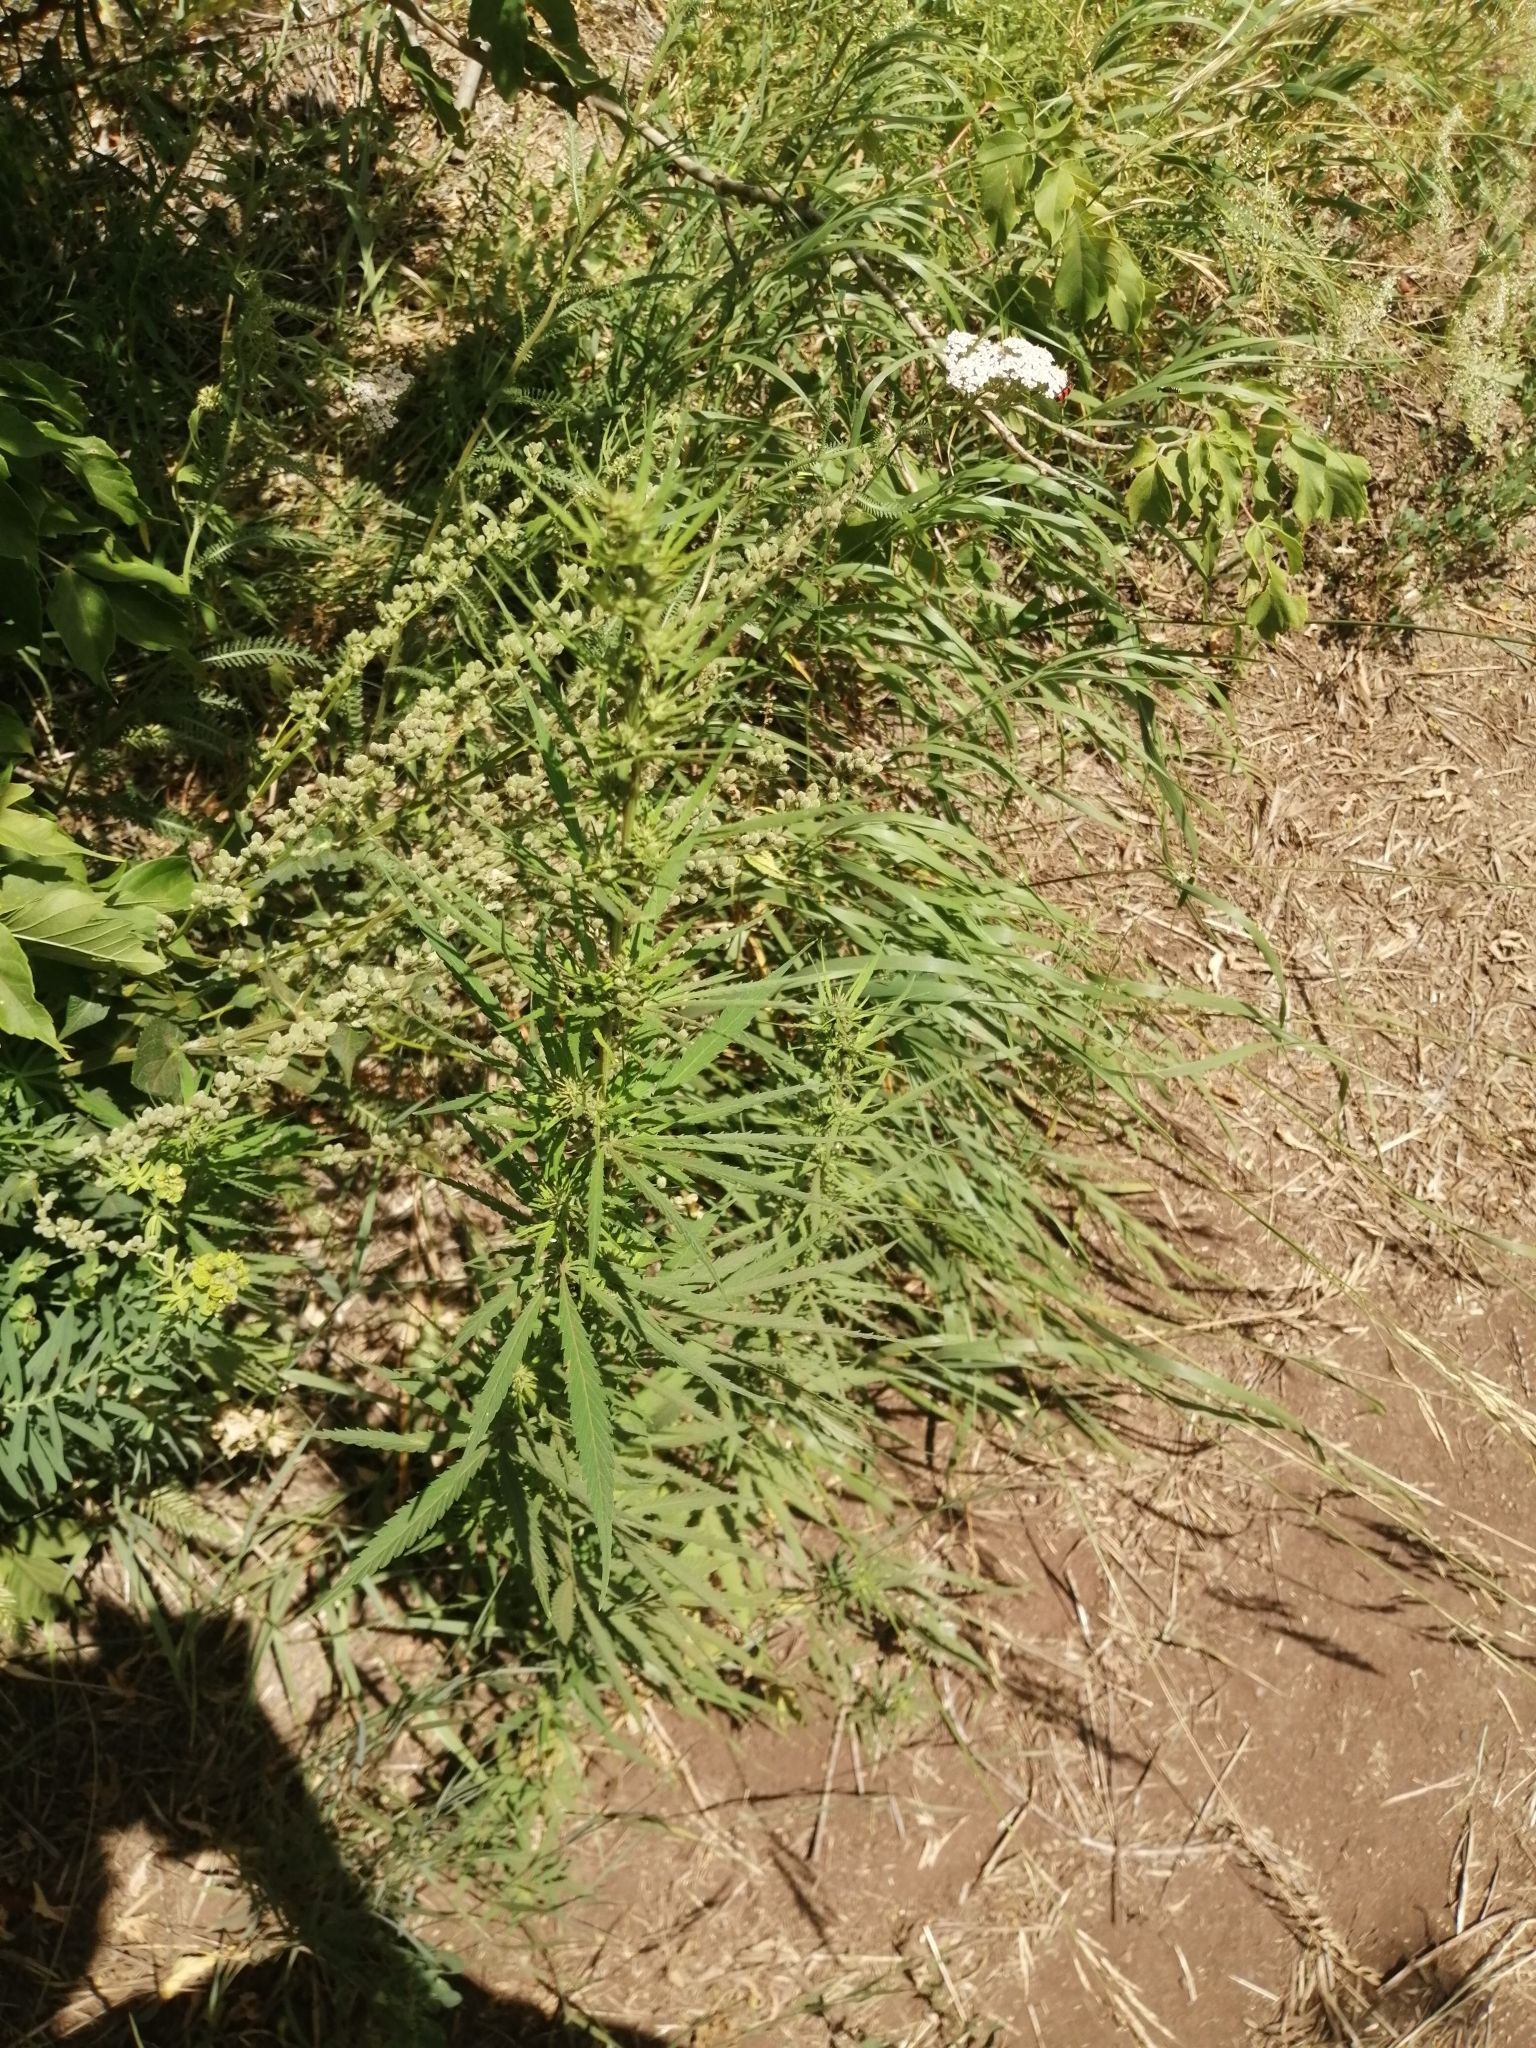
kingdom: Plantae
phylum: Tracheophyta
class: Magnoliopsida
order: Rosales
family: Cannabaceae
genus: Cannabis
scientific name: Cannabis sativa
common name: Hemp
